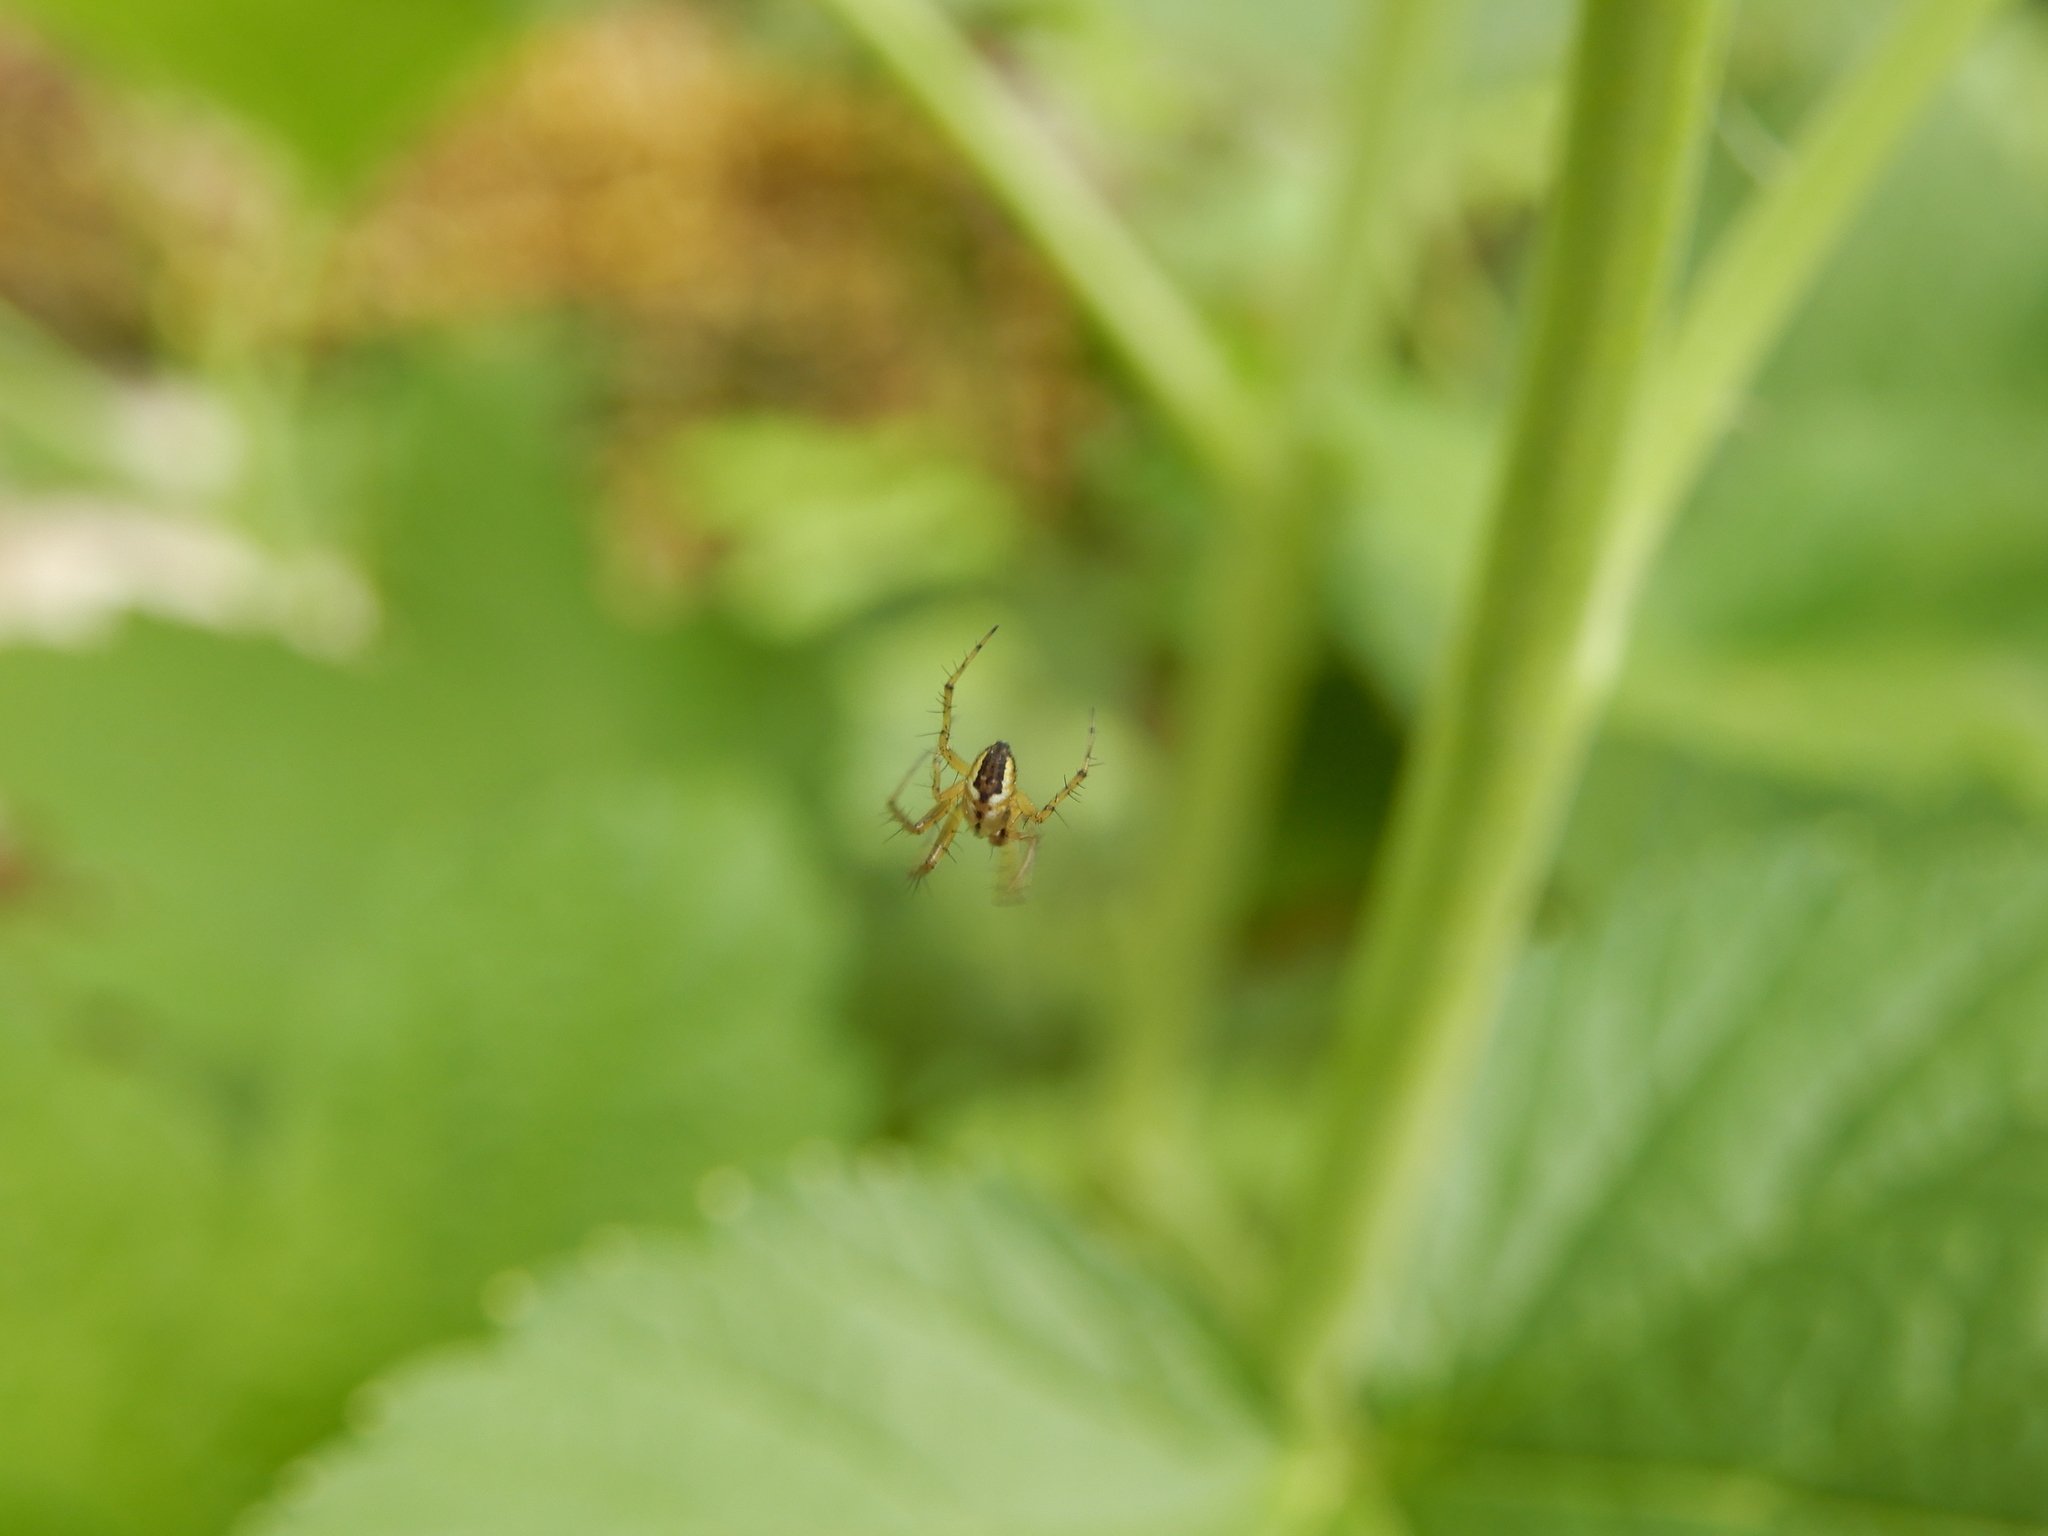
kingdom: Animalia
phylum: Arthropoda
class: Arachnida
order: Araneae
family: Araneidae
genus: Mangora
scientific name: Mangora acalypha
